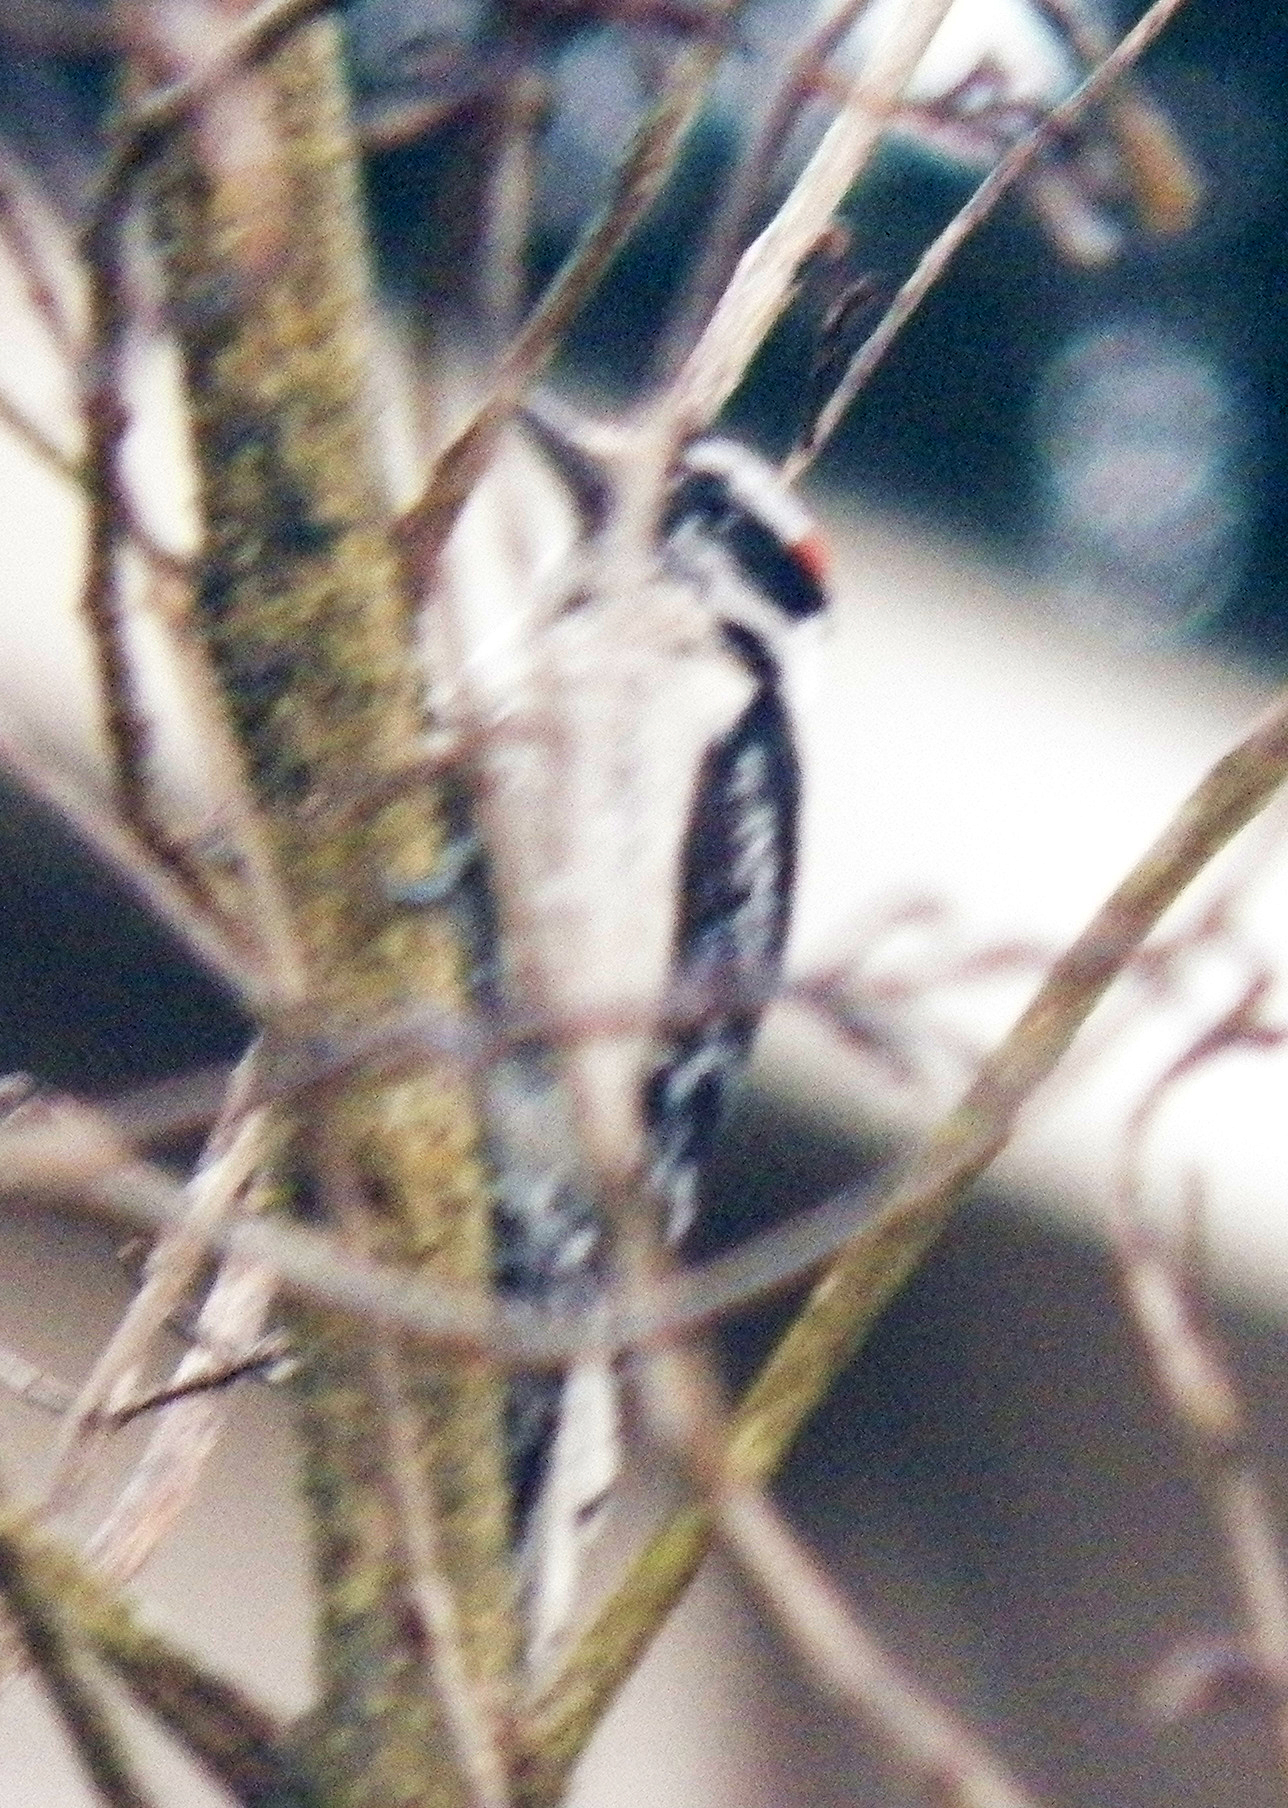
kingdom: Animalia
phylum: Chordata
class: Aves
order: Piciformes
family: Picidae
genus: Dryobates
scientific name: Dryobates pubescens
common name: Downy woodpecker
